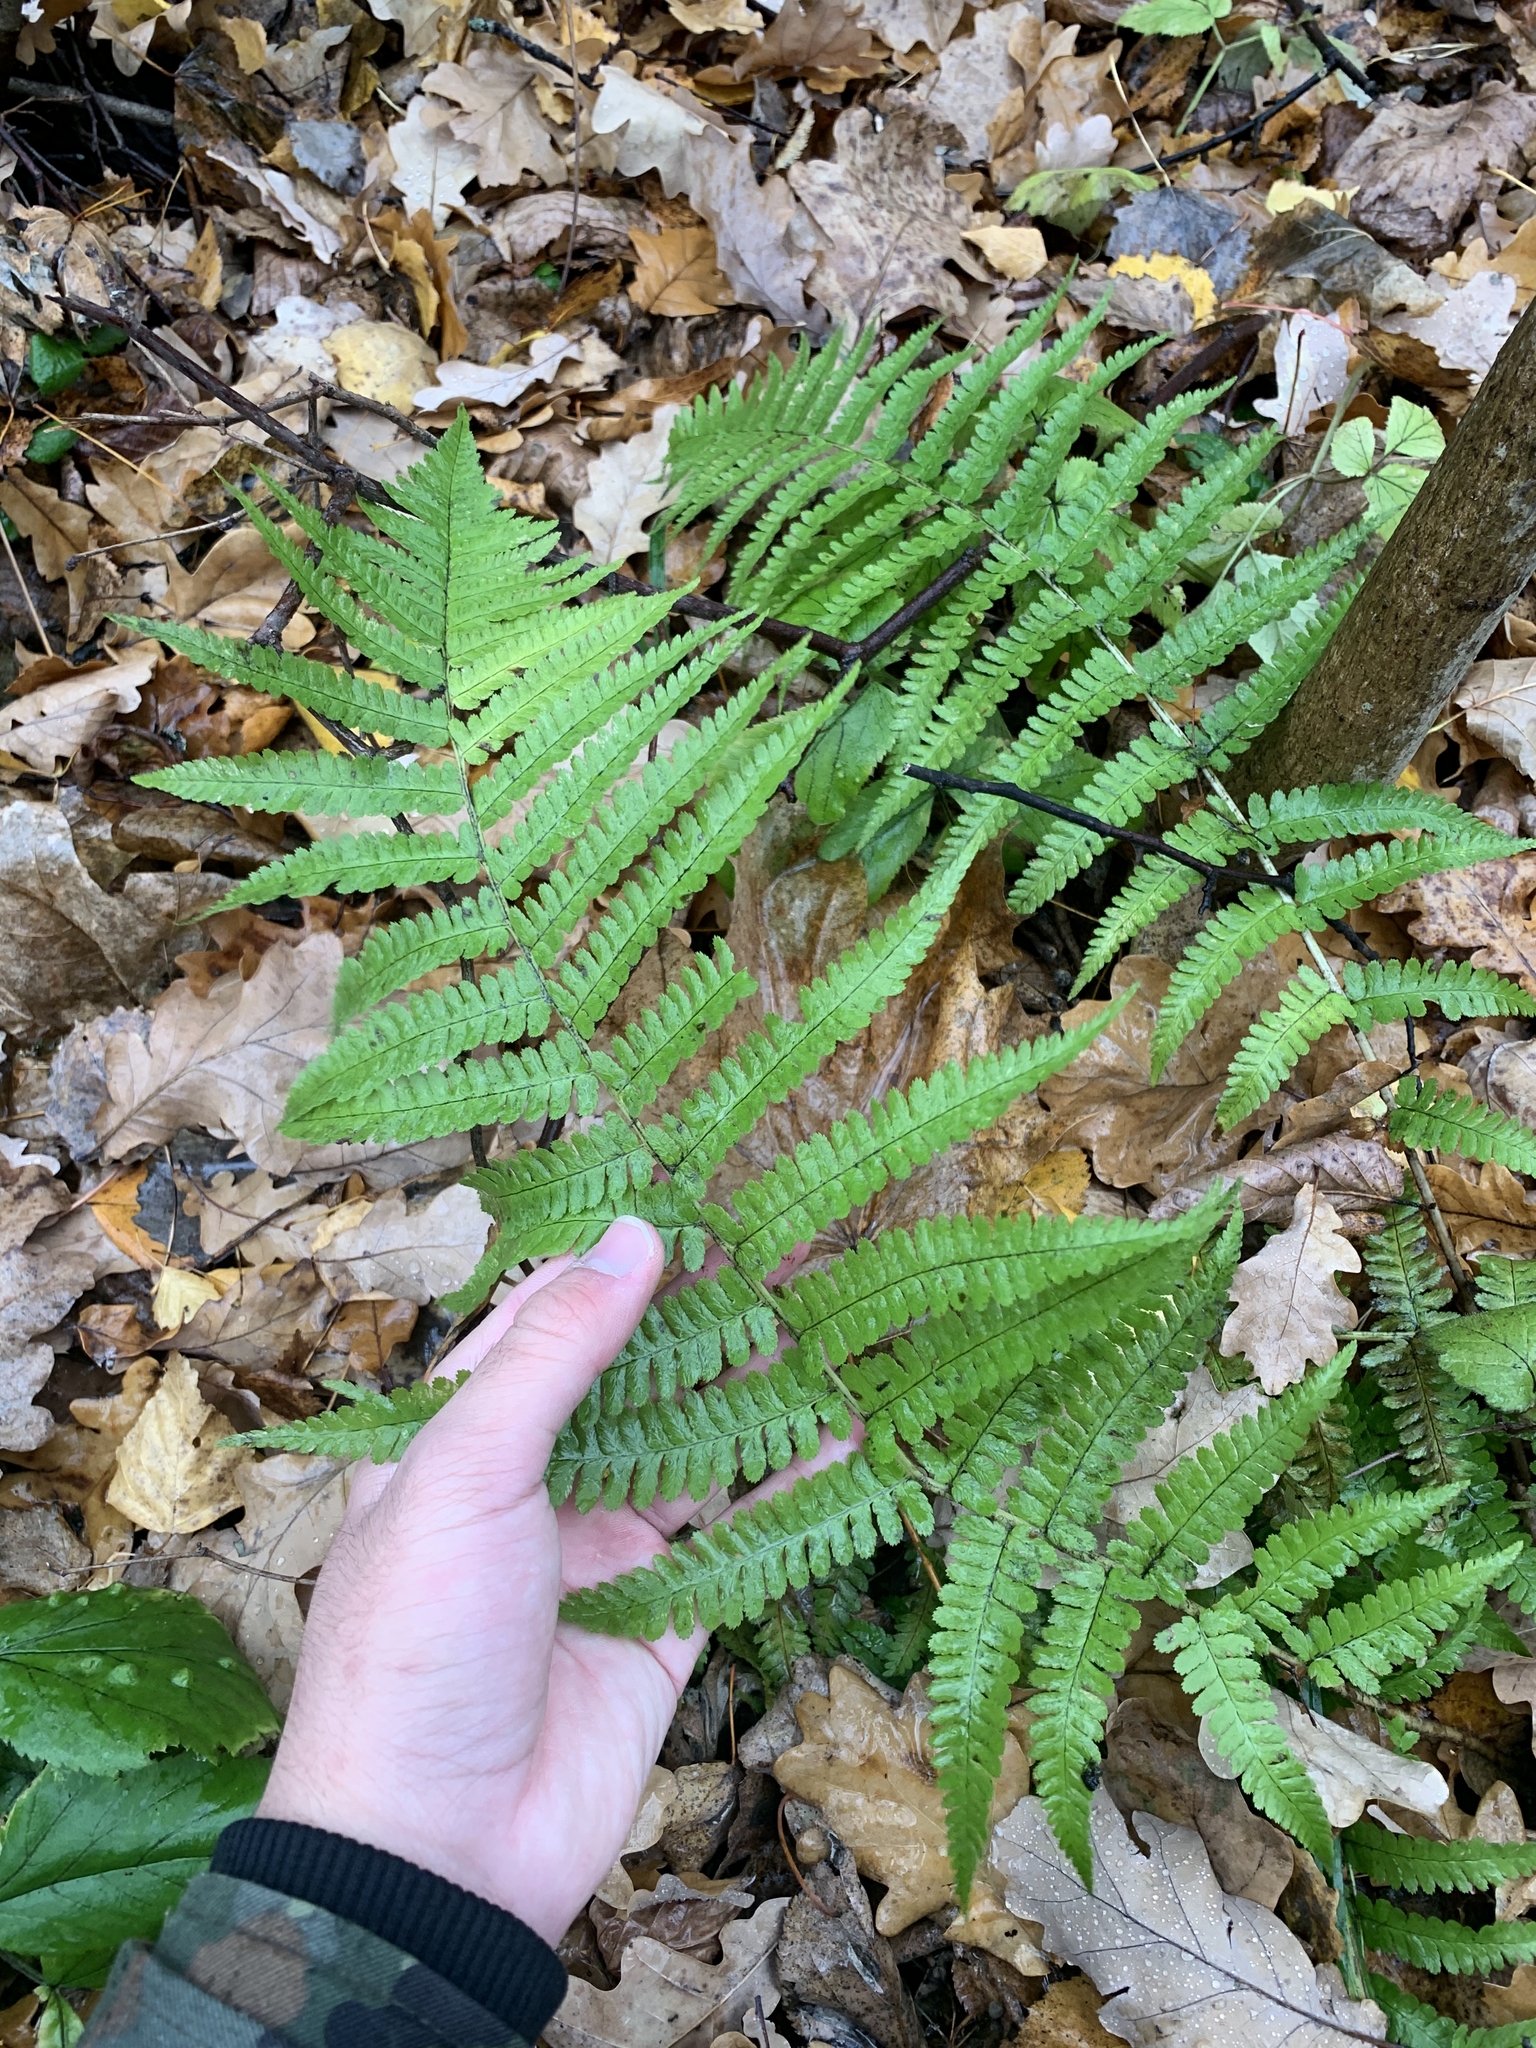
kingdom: Plantae
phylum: Tracheophyta
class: Polypodiopsida
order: Polypodiales
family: Dryopteridaceae
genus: Dryopteris
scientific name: Dryopteris filix-mas
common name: Male fern
